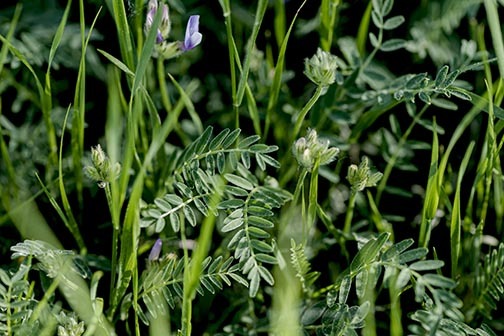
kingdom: Plantae
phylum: Tracheophyta
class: Magnoliopsida
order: Fabales
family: Fabaceae
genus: Astragalus
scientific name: Astragalus agrestis
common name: Field milk-vetch
